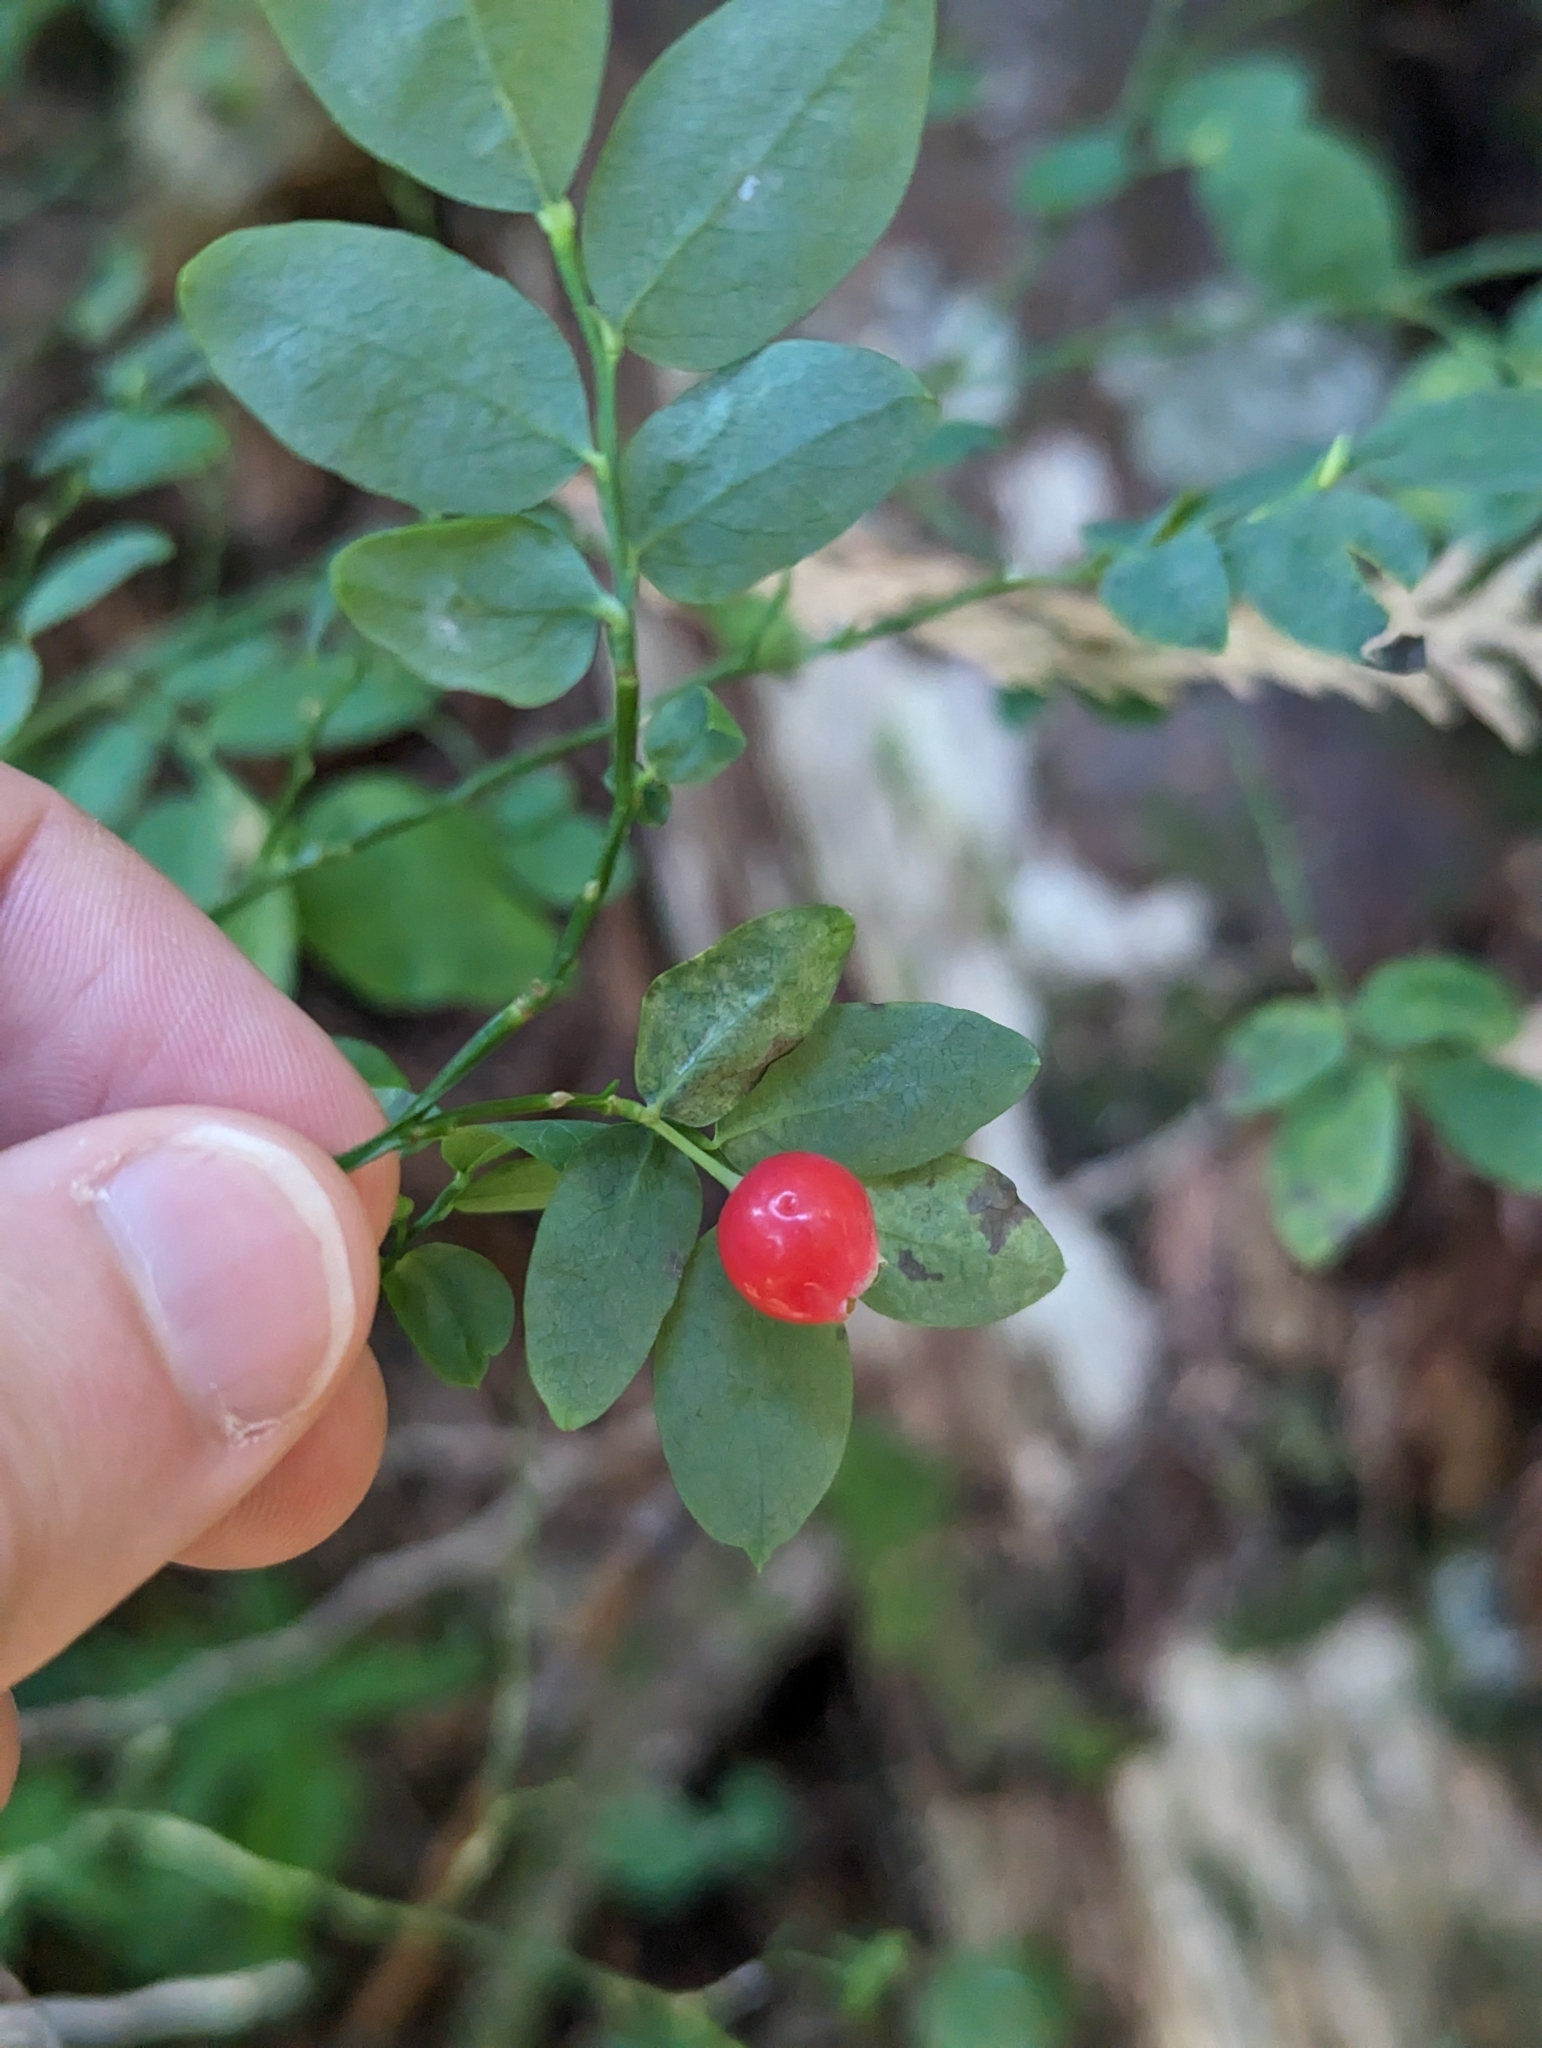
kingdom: Plantae
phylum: Tracheophyta
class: Magnoliopsida
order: Ericales
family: Ericaceae
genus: Vaccinium
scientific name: Vaccinium parvifolium
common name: Red-huckleberry
